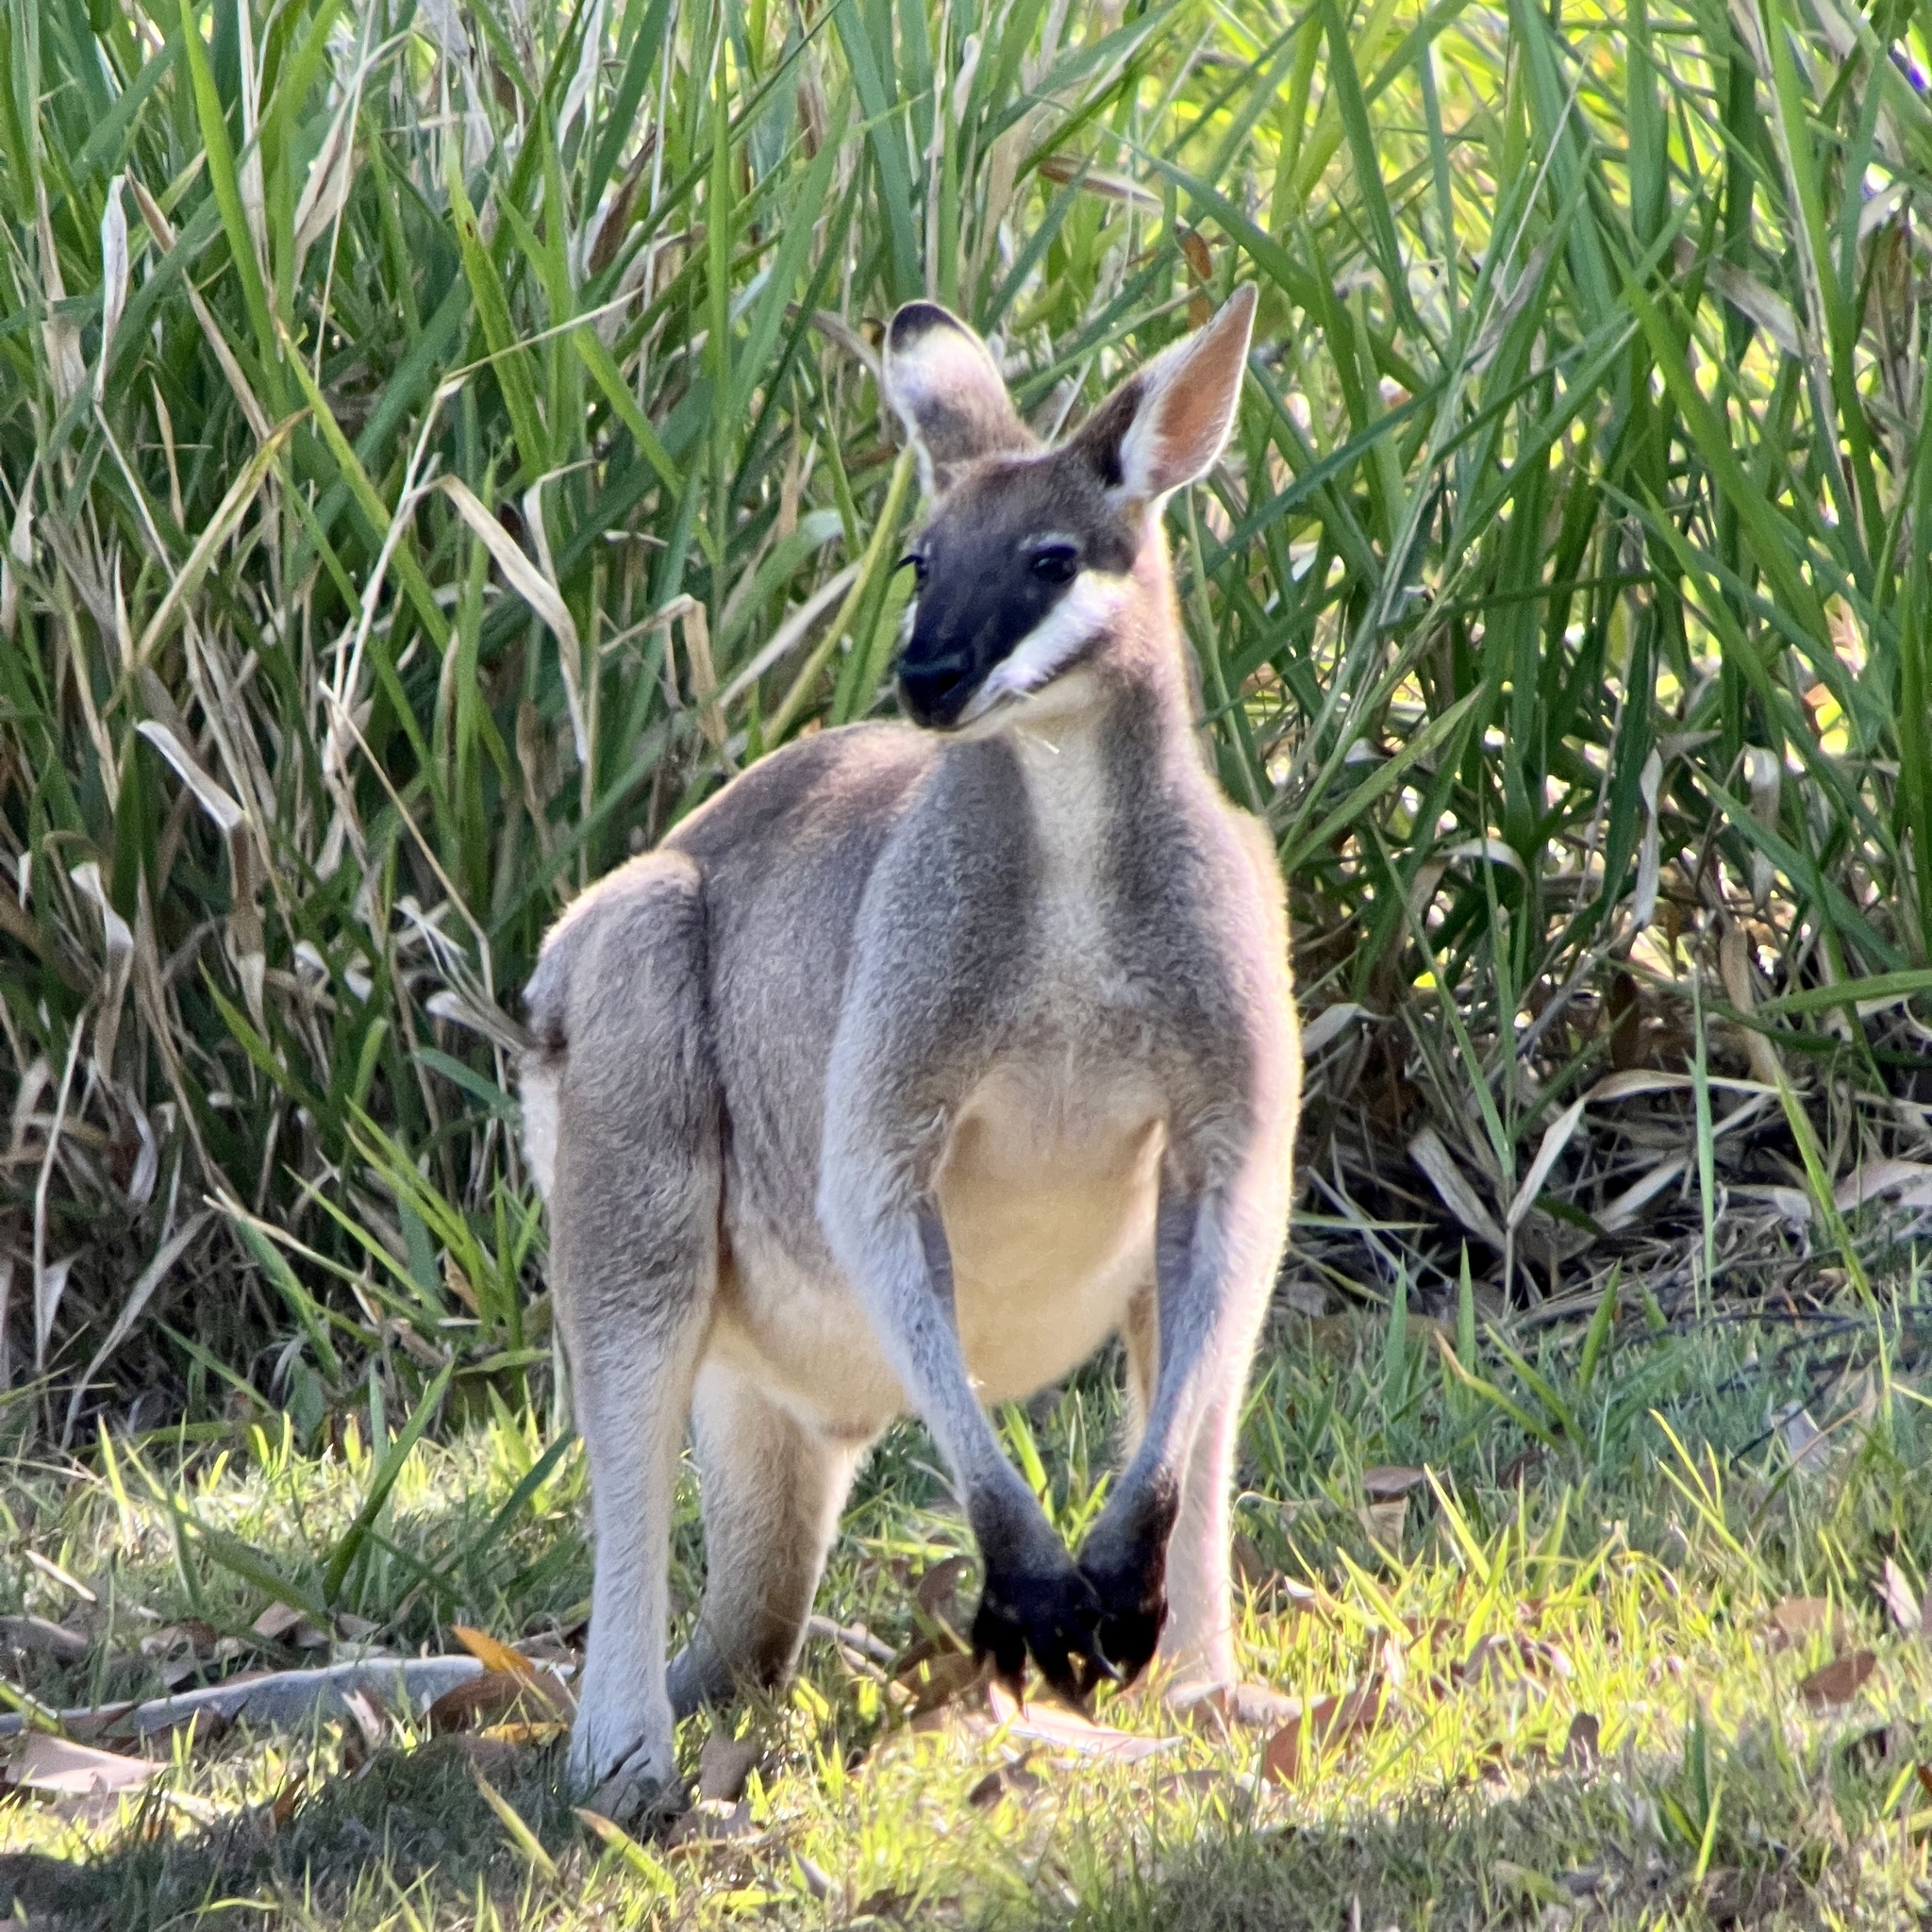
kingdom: Animalia
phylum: Chordata
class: Mammalia
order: Diprotodontia
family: Macropodidae
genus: Notamacropus
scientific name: Notamacropus parryi
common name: Whip-tailed wallaby
